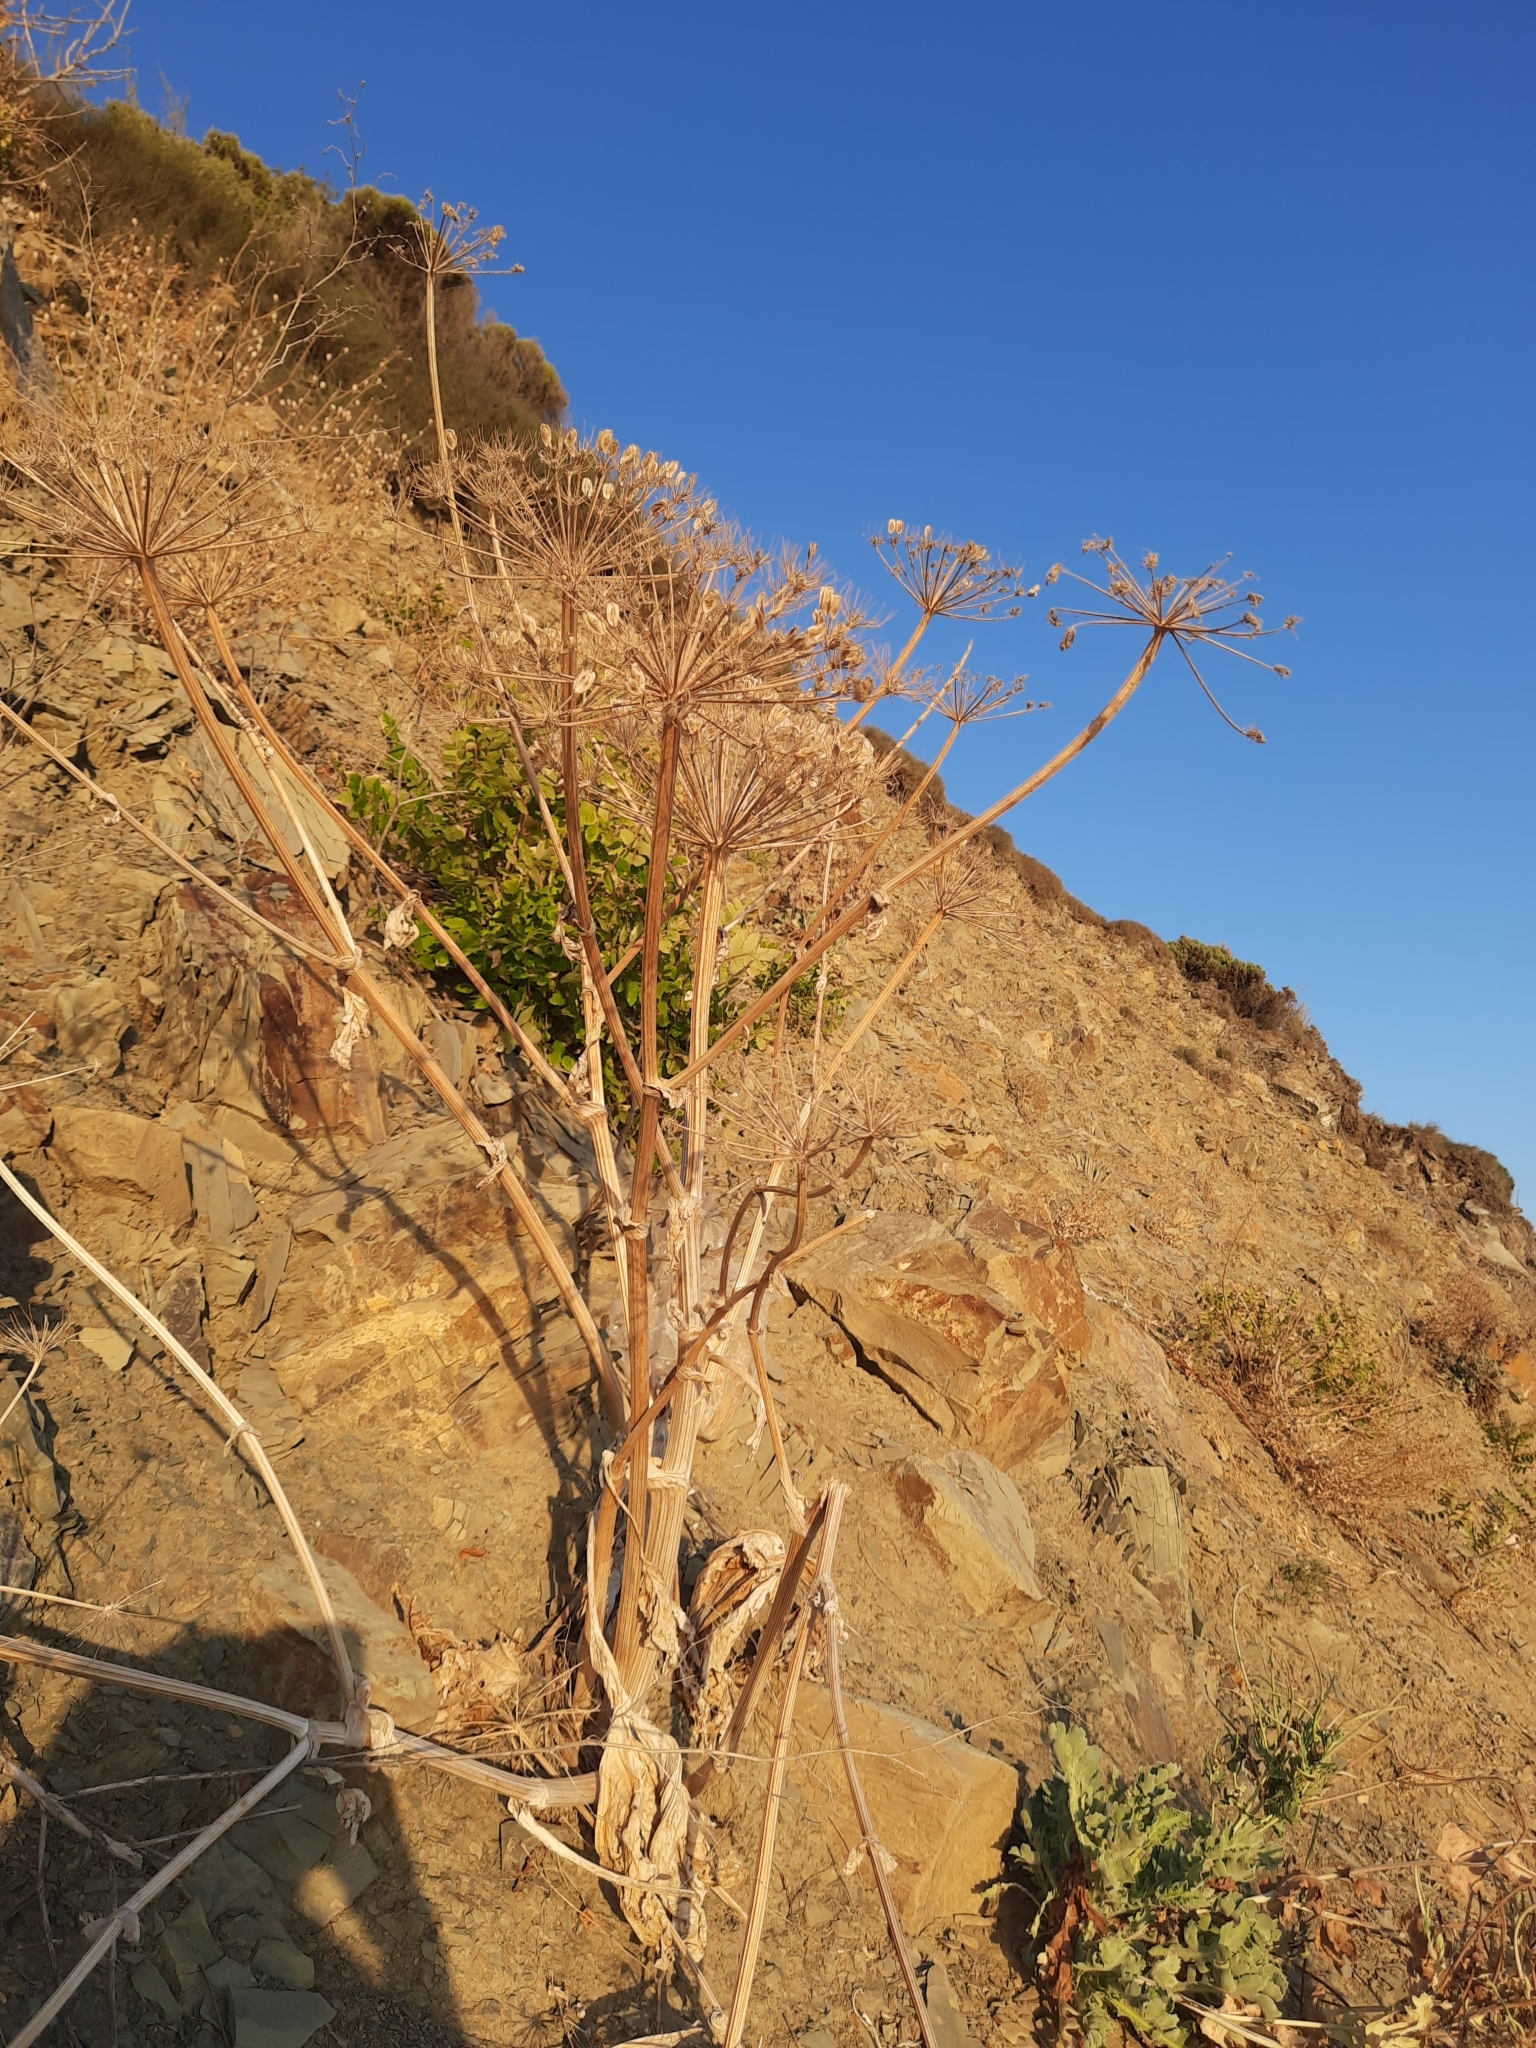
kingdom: Plantae
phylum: Tracheophyta
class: Magnoliopsida
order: Apiales
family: Apiaceae
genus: Heracleum
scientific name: Heracleum stevenii
